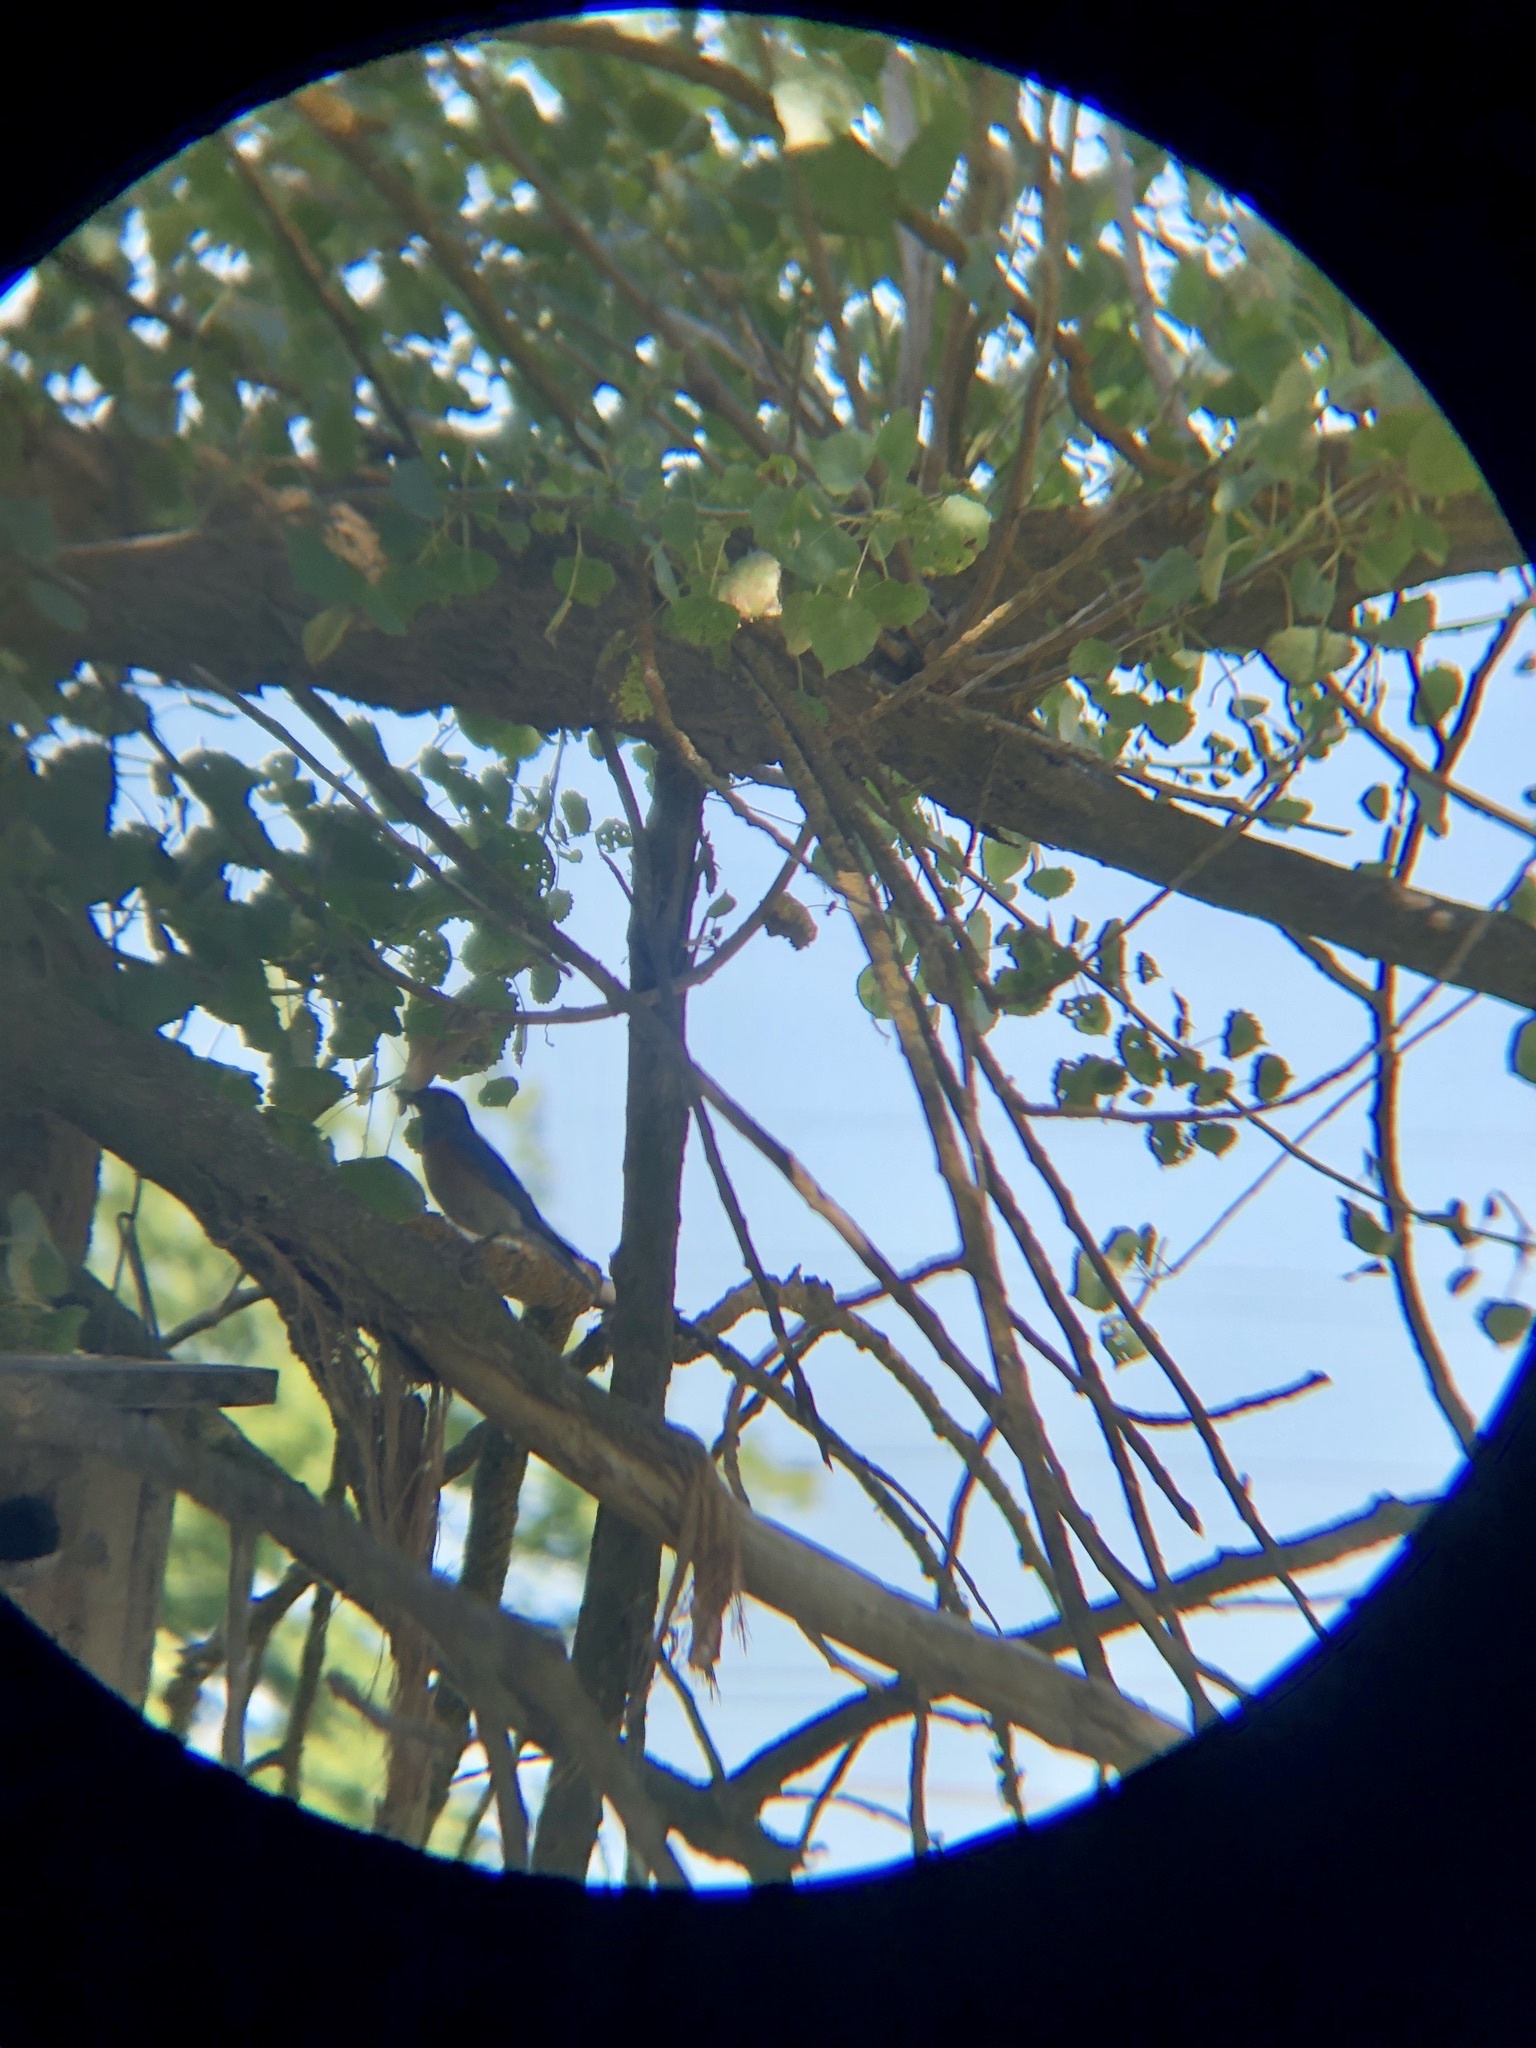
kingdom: Animalia
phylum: Chordata
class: Aves
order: Passeriformes
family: Turdidae
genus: Sialia
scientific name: Sialia mexicana
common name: Western bluebird
